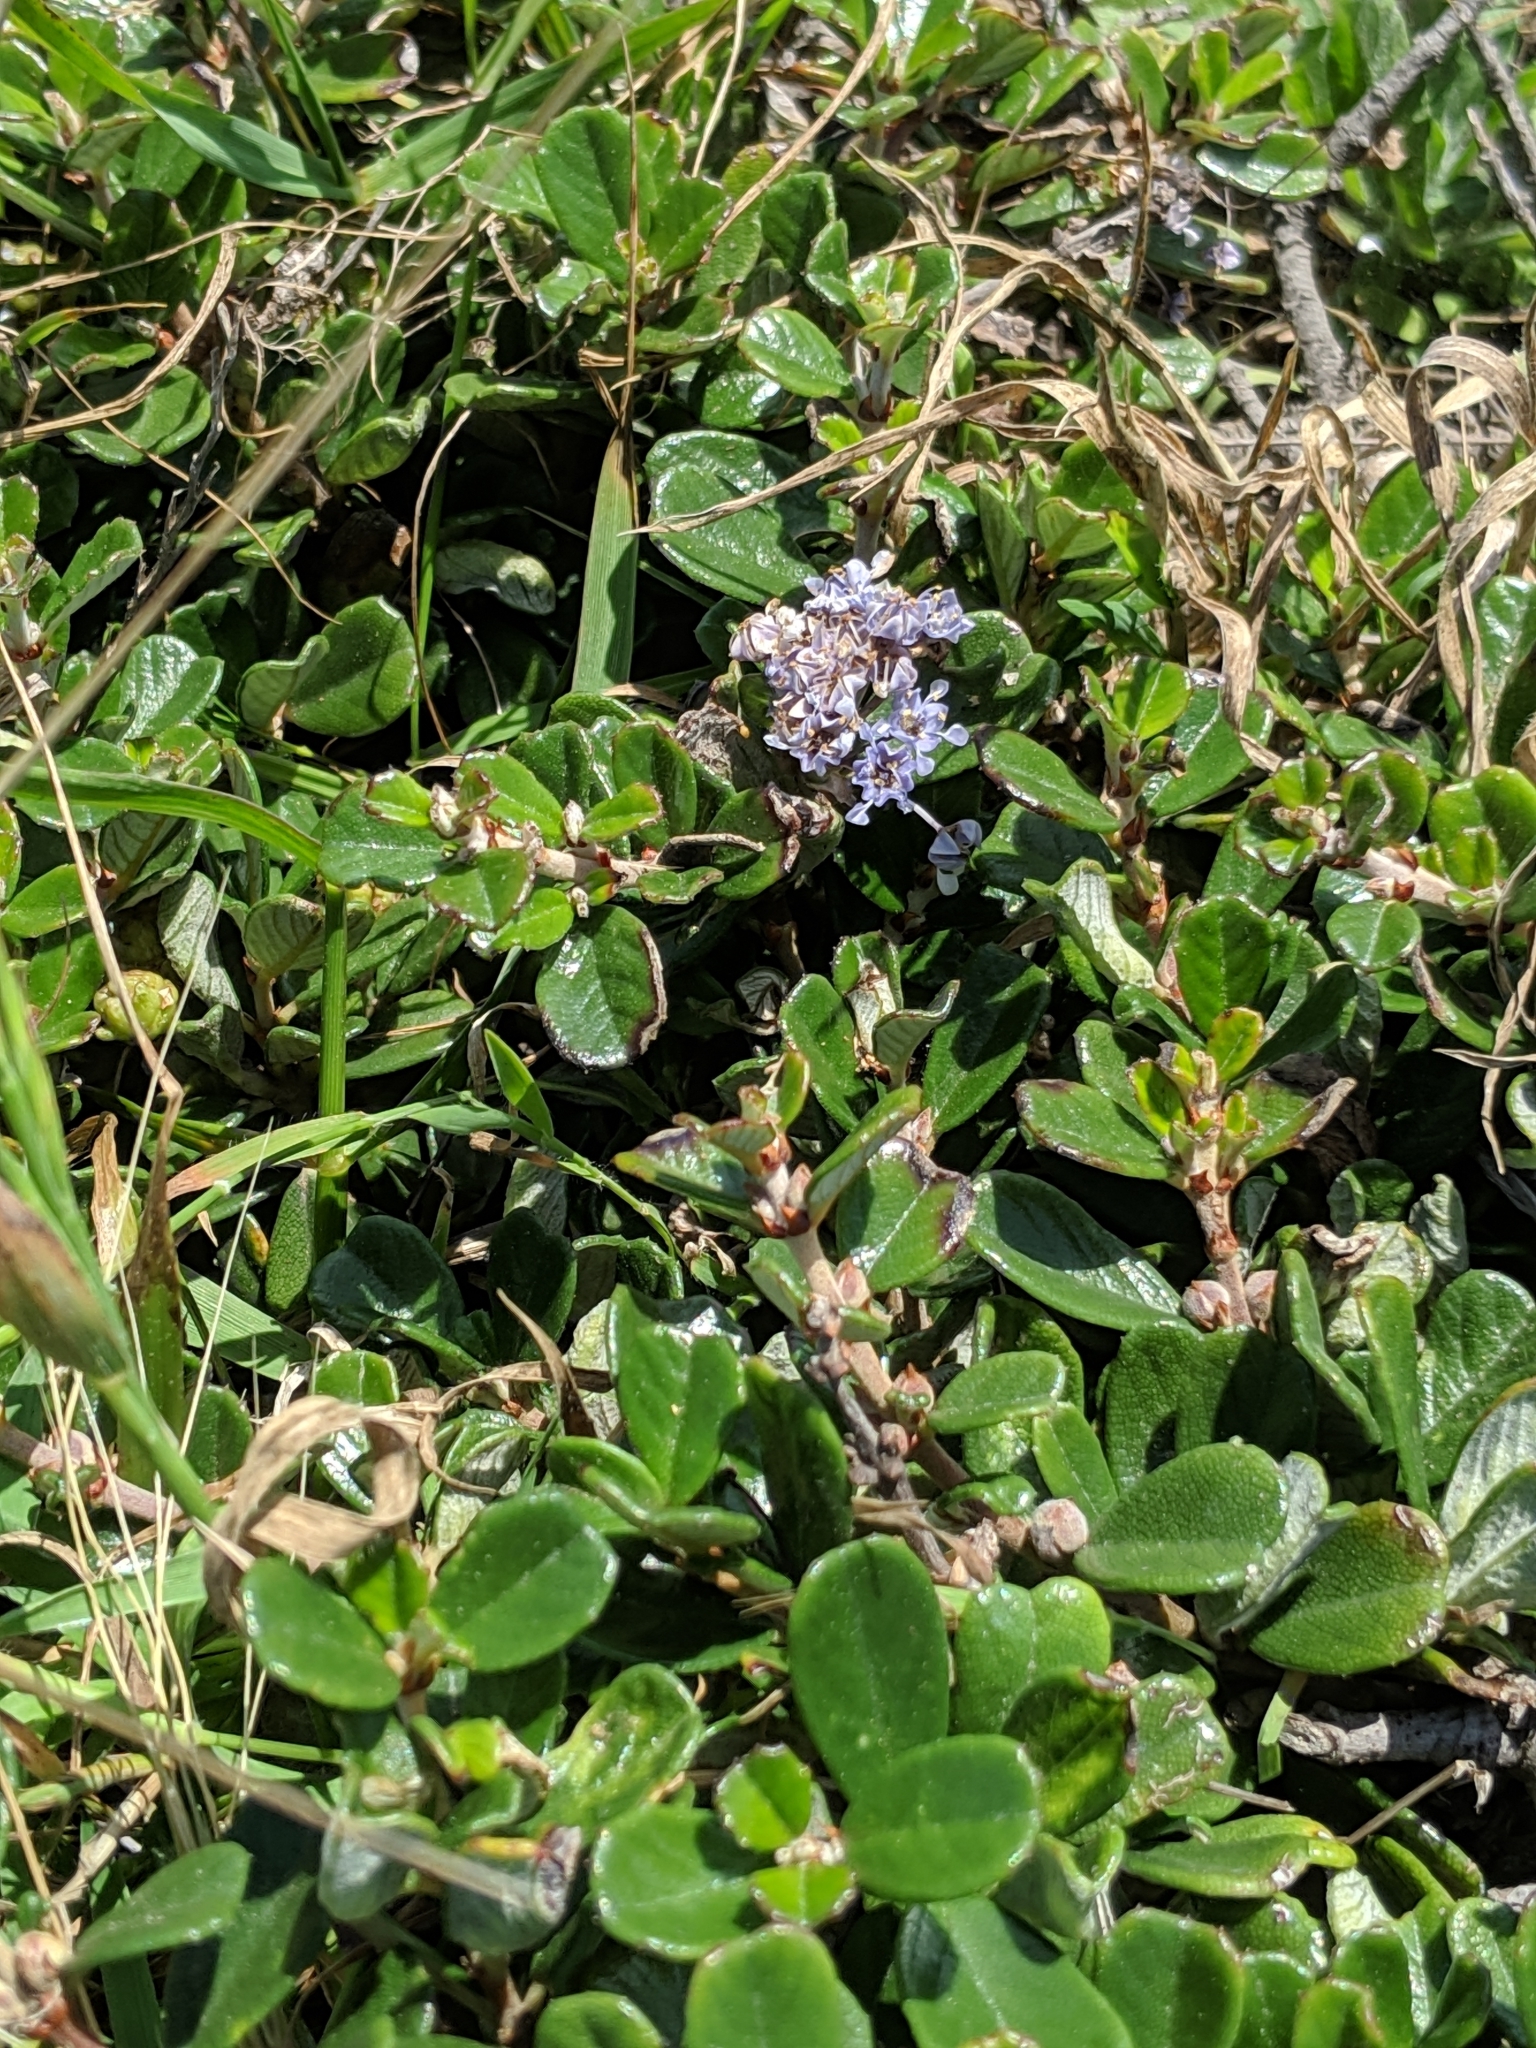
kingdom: Plantae
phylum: Tracheophyta
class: Magnoliopsida
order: Rosales
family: Rhamnaceae
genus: Ceanothus
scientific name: Ceanothus maritimus
